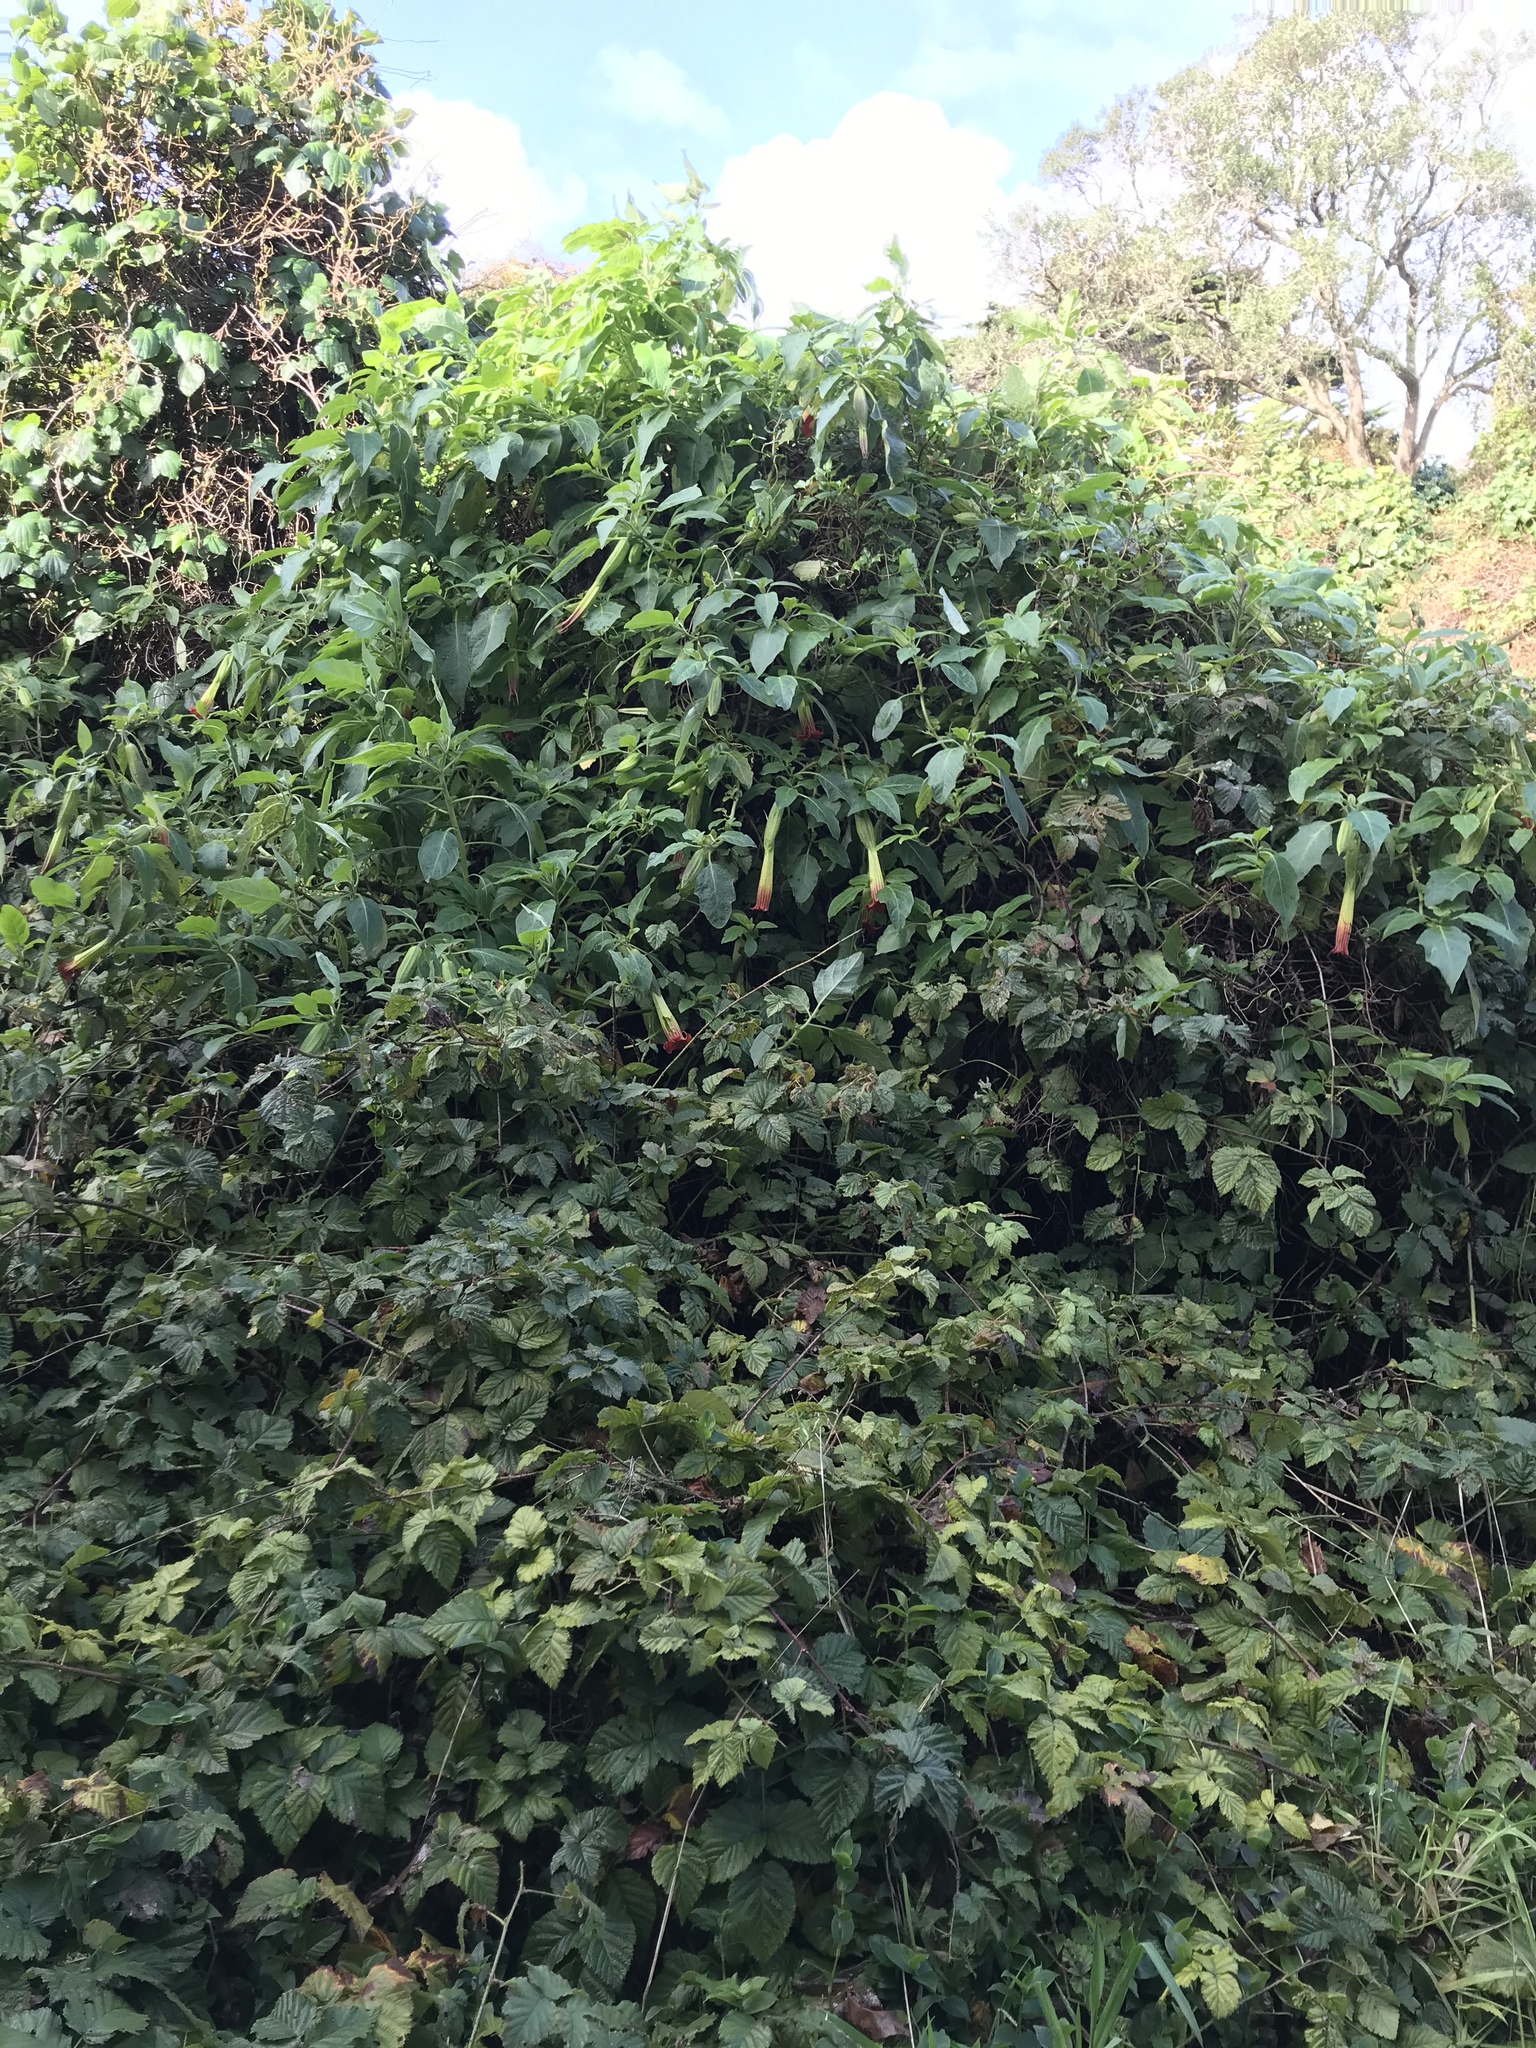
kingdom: Plantae
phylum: Tracheophyta
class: Magnoliopsida
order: Solanales
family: Solanaceae
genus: Brugmansia
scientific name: Brugmansia sanguinea
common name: Red floripontio
